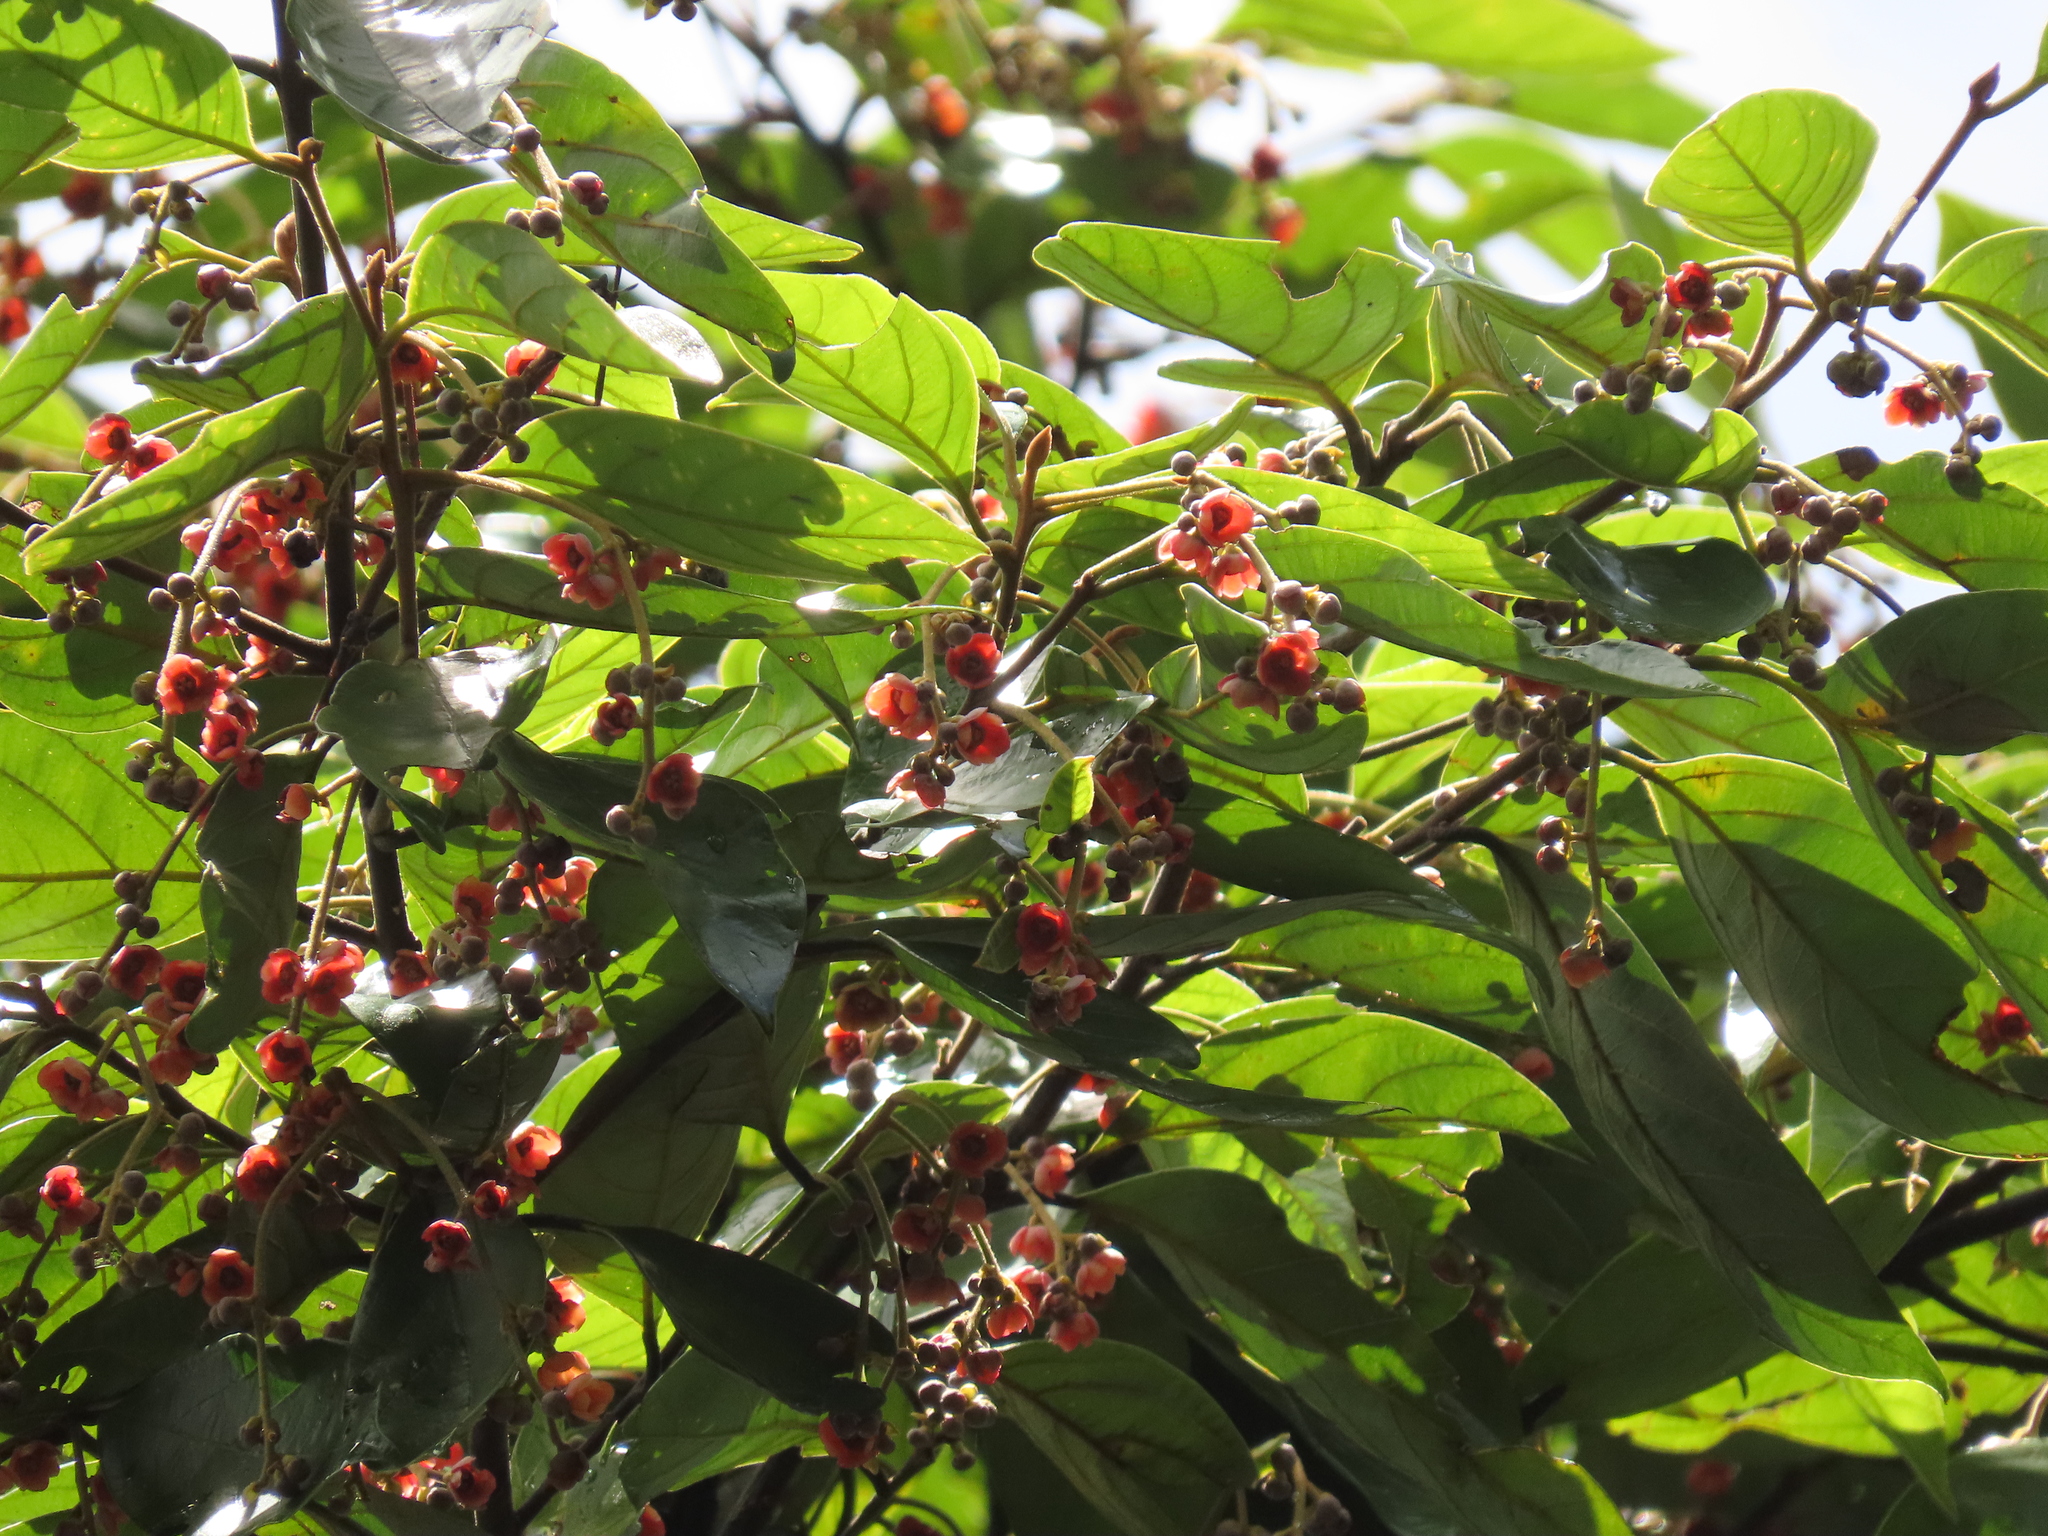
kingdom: Plantae
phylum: Tracheophyta
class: Magnoliopsida
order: Laurales
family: Lauraceae
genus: Endiandra
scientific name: Endiandra hypotephra
